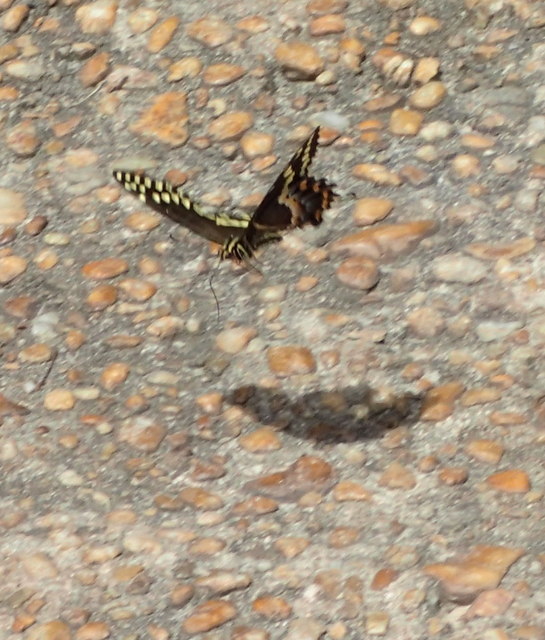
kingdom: Animalia
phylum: Arthropoda
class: Insecta
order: Lepidoptera
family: Papilionidae
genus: Papilio
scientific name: Papilio palamedes
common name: Palamedes swallowtail
